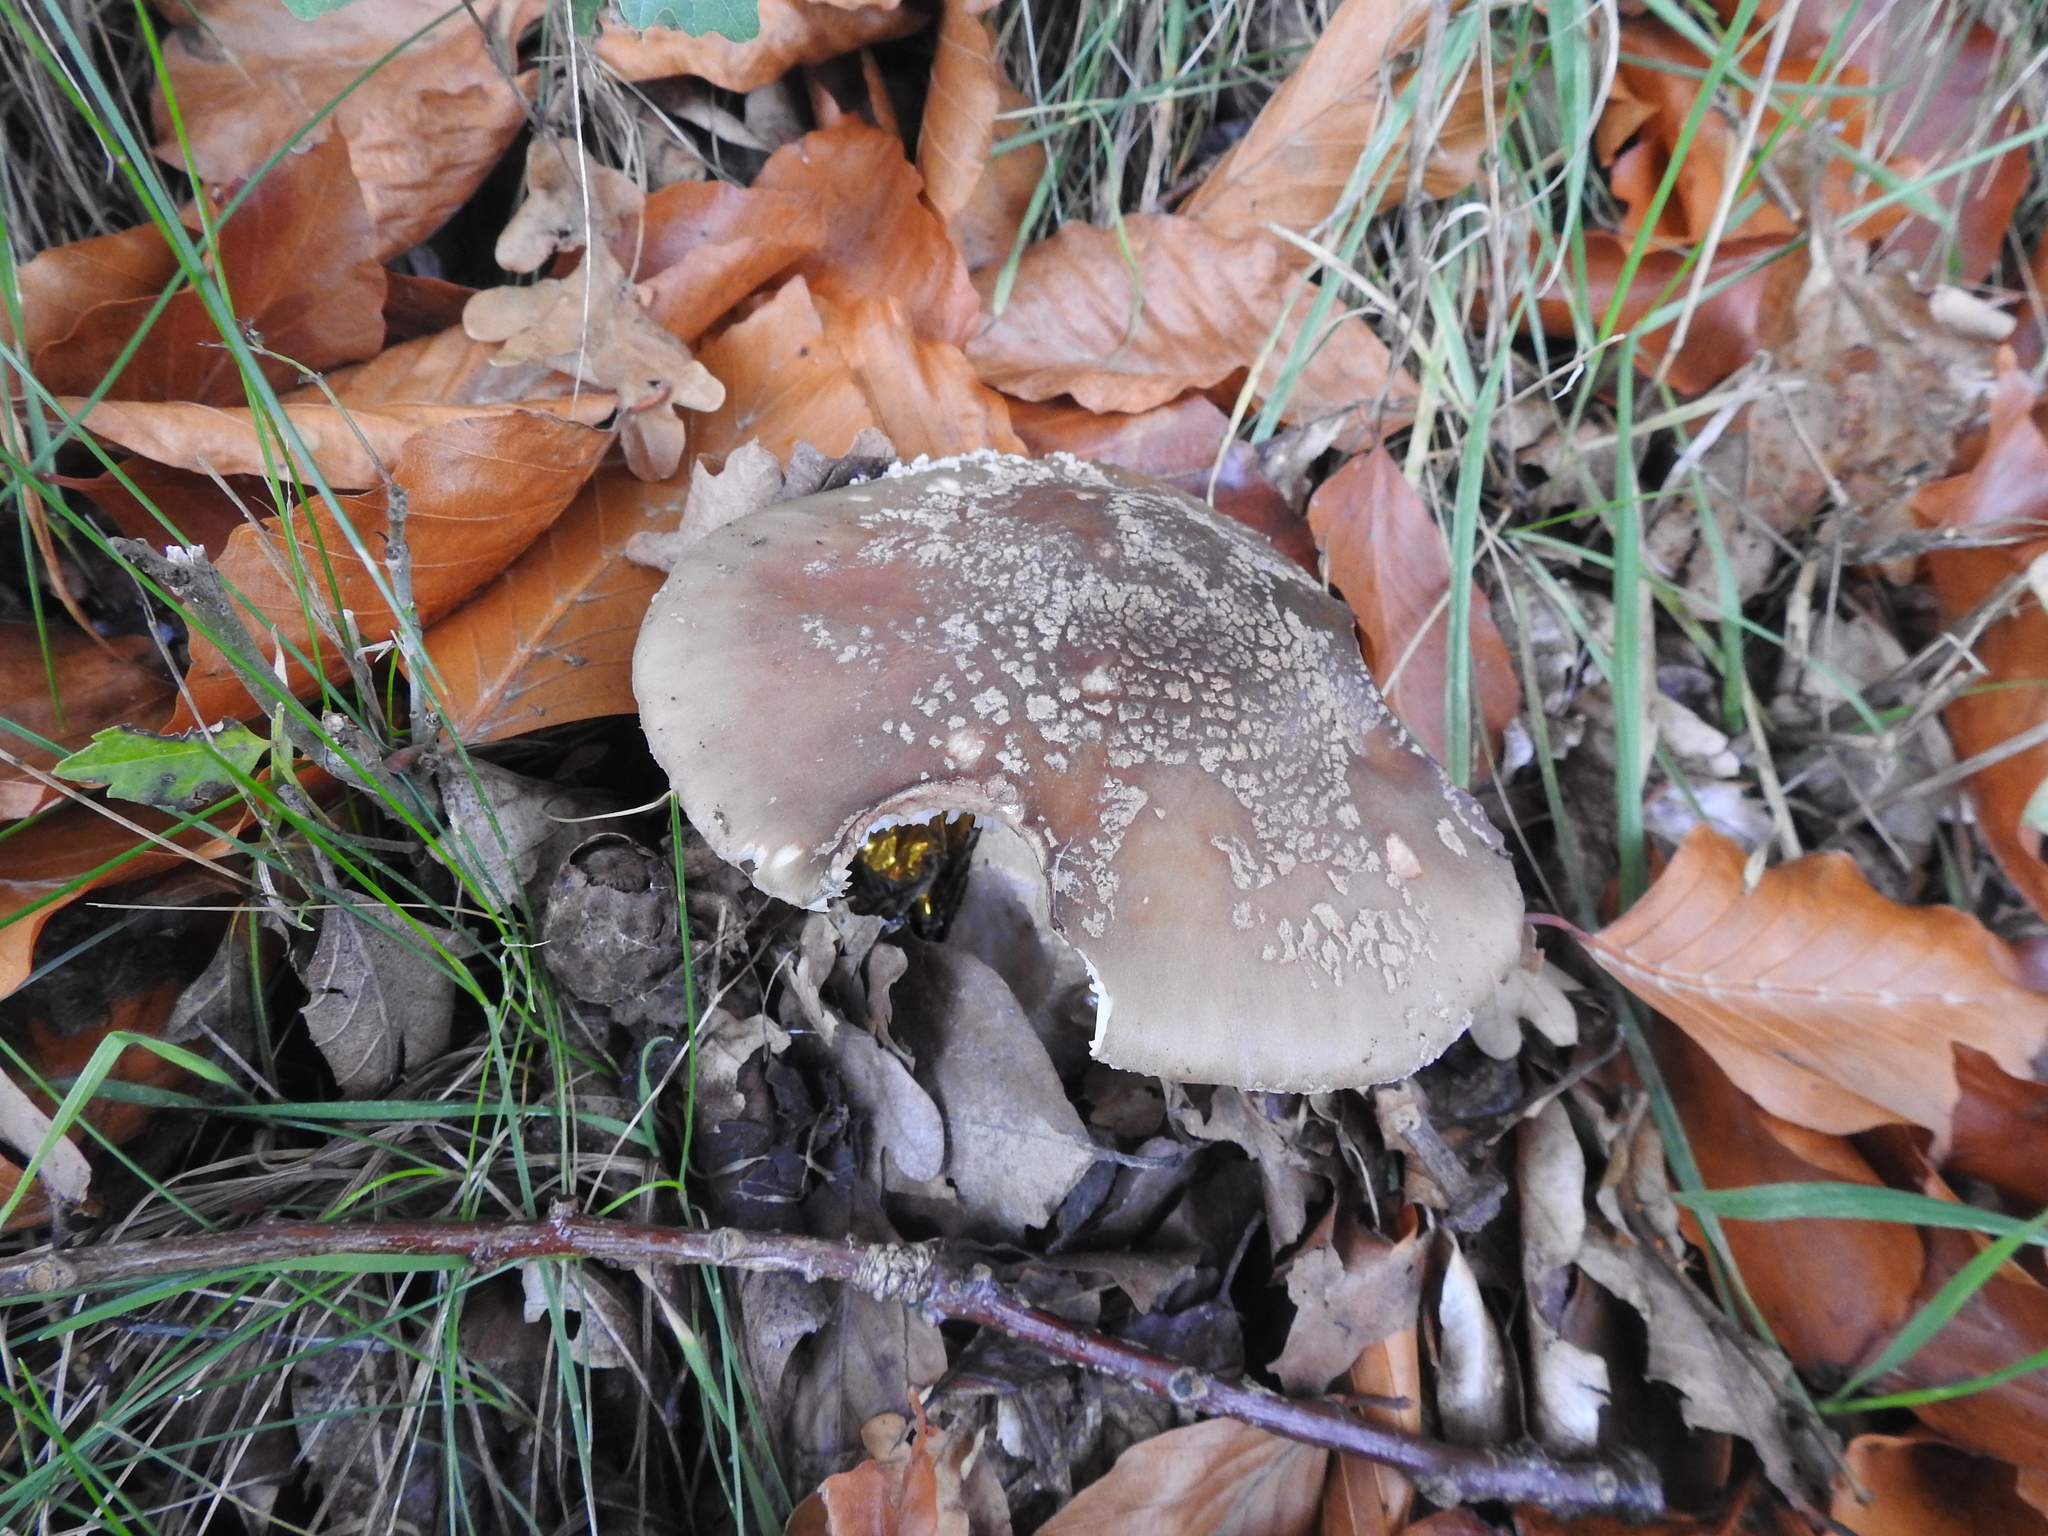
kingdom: Fungi
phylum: Basidiomycota
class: Agaricomycetes
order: Agaricales
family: Amanitaceae
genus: Amanita
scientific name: Amanita rubescens
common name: Blusher
